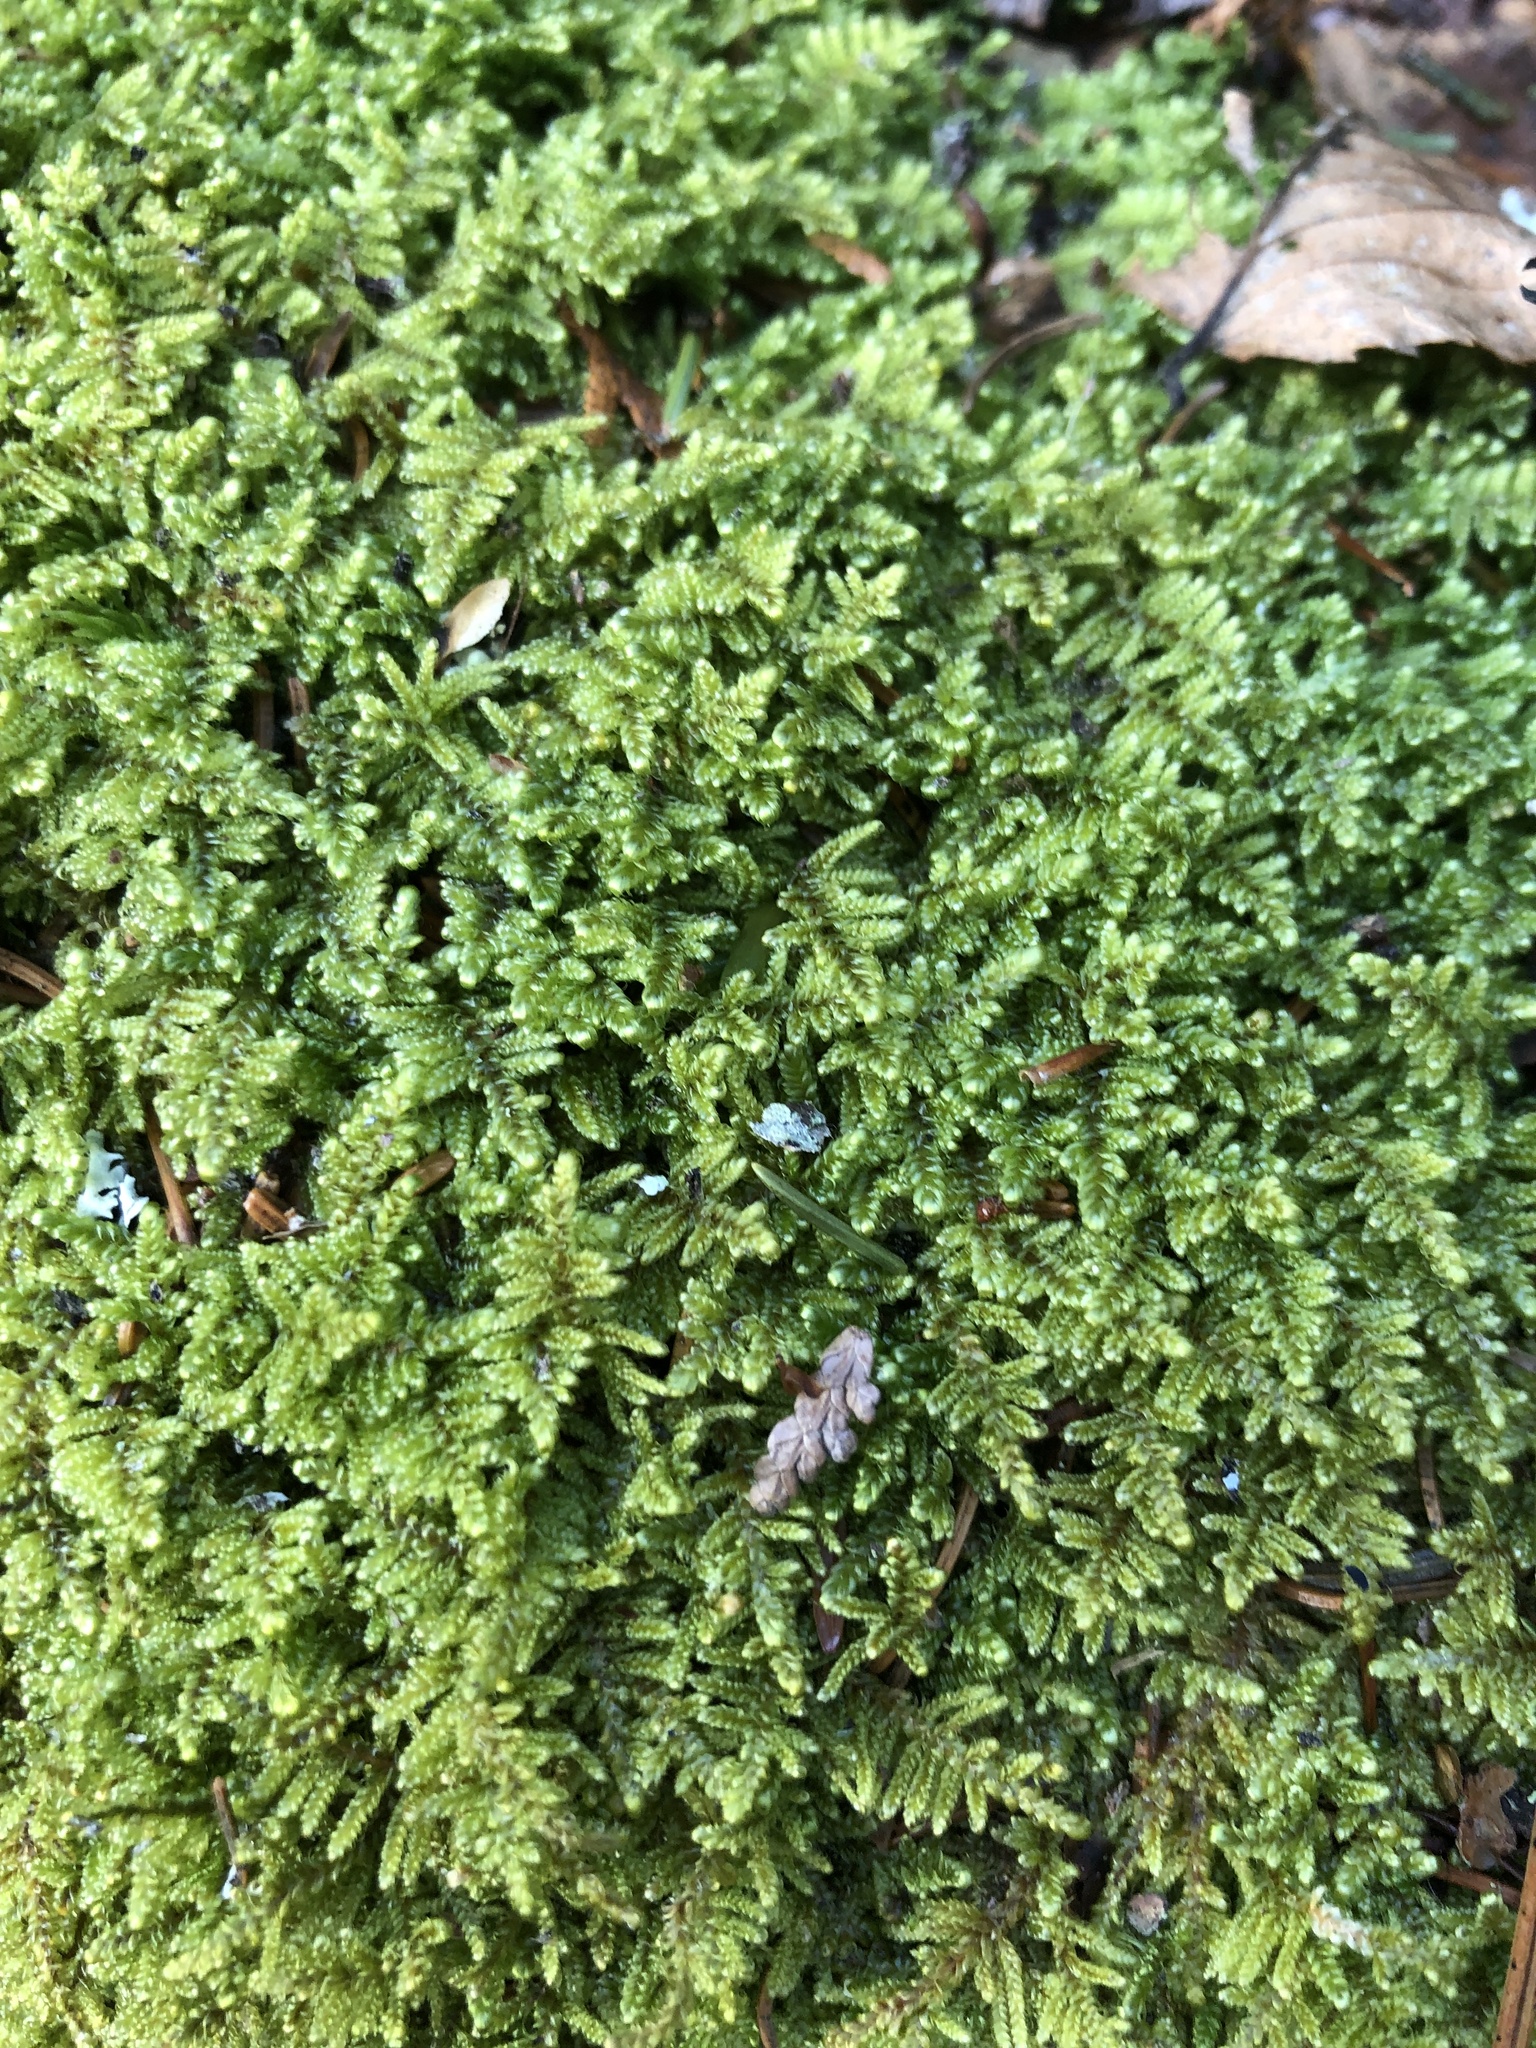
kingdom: Plantae
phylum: Bryophyta
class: Bryopsida
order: Hypnales
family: Callicladiaceae
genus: Callicladium
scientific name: Callicladium imponens
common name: Brocade moss
